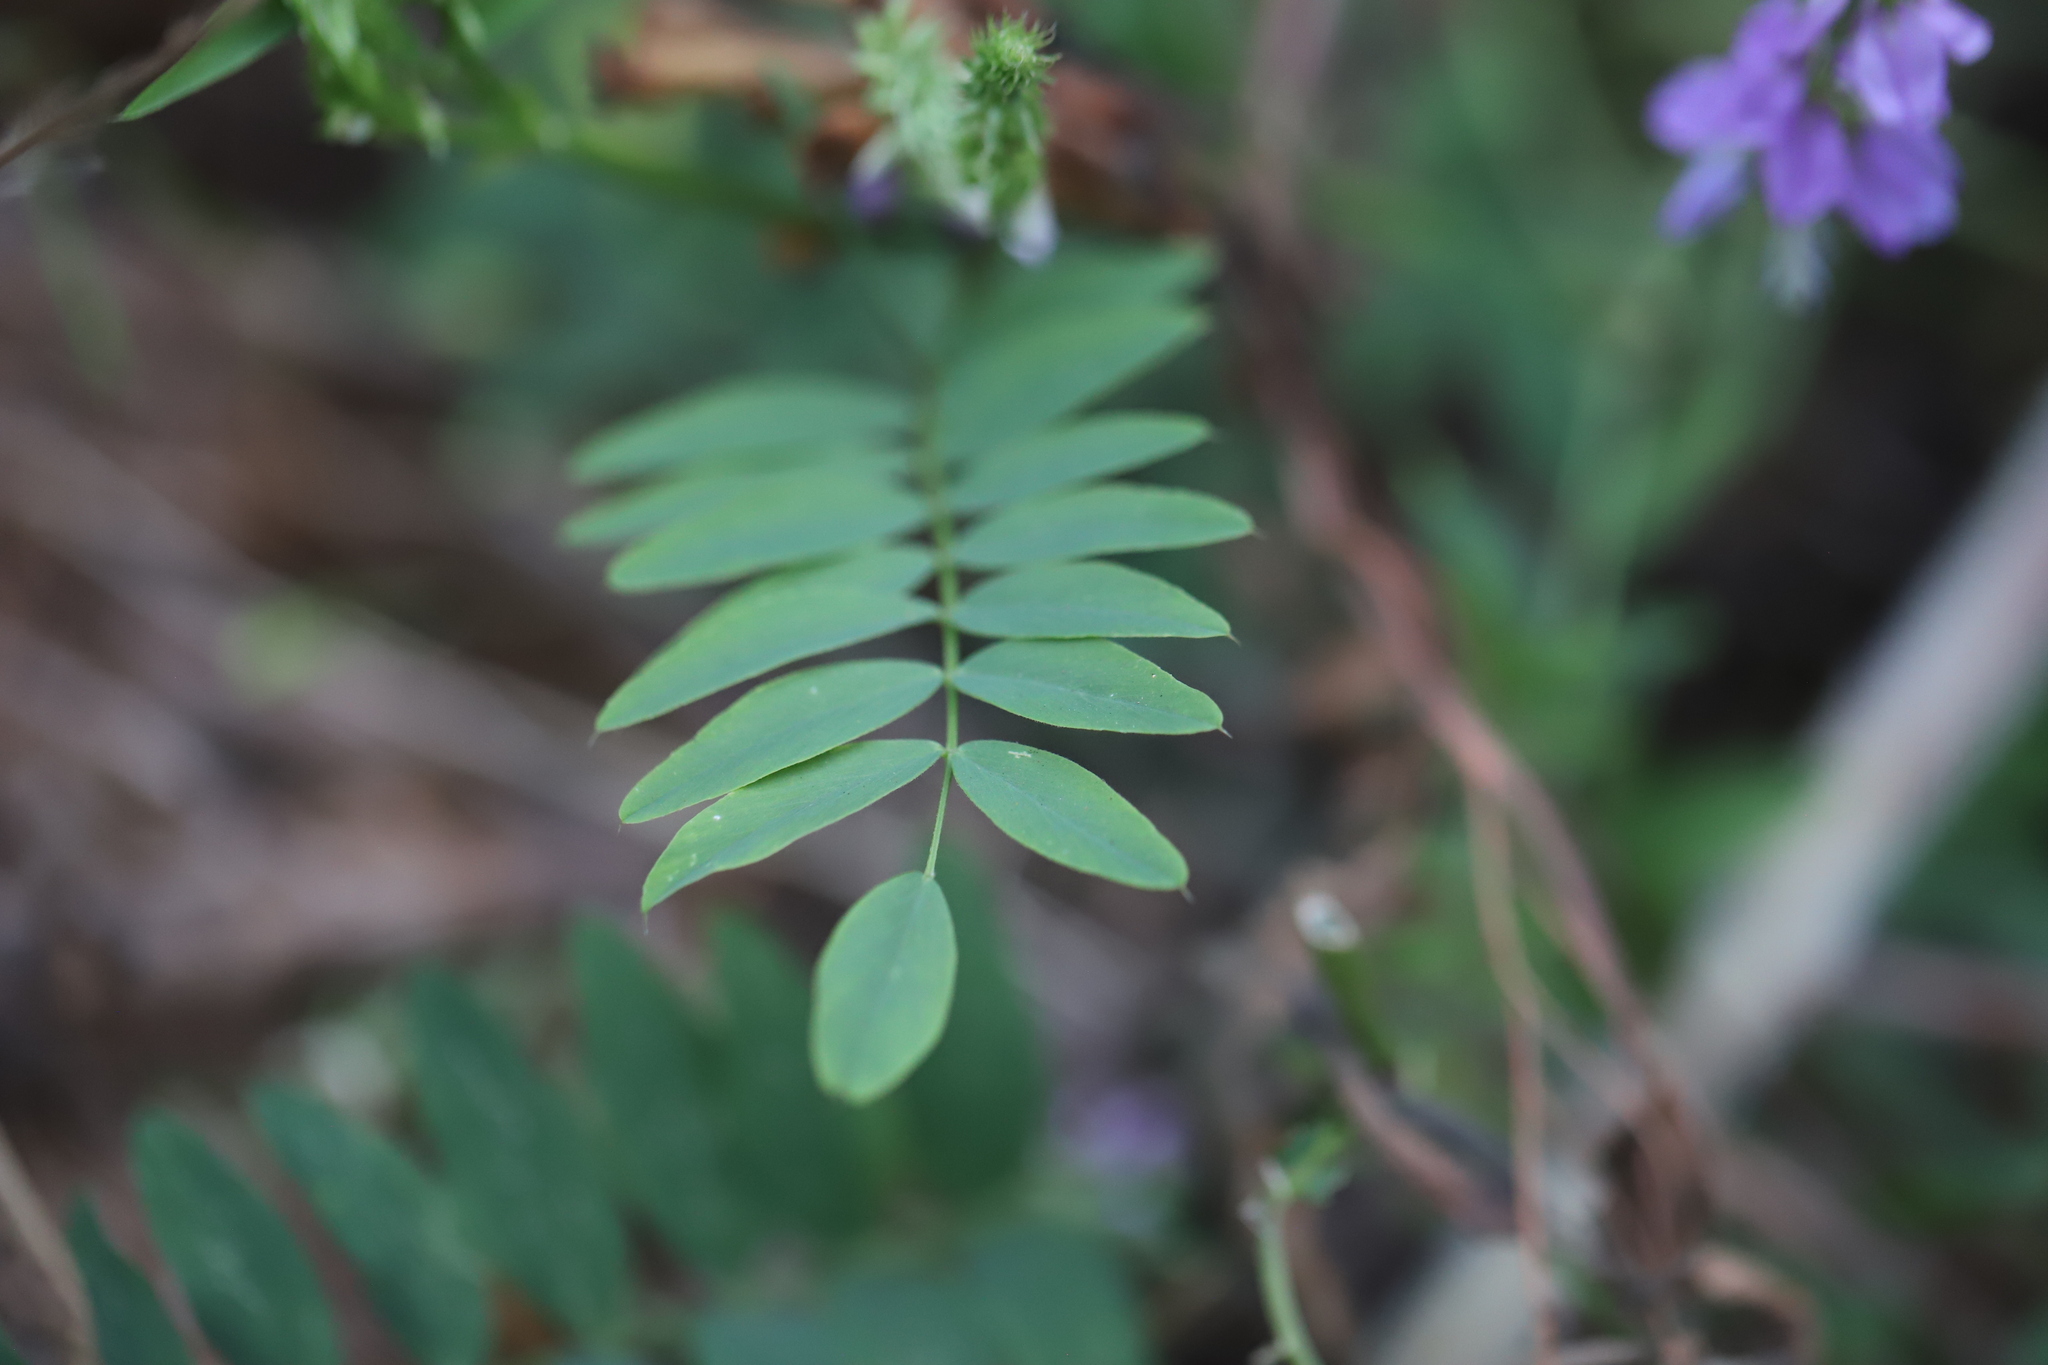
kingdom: Plantae
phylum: Tracheophyta
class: Magnoliopsida
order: Fabales
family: Fabaceae
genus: Galega
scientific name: Galega officinalis
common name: Goat's-rue
